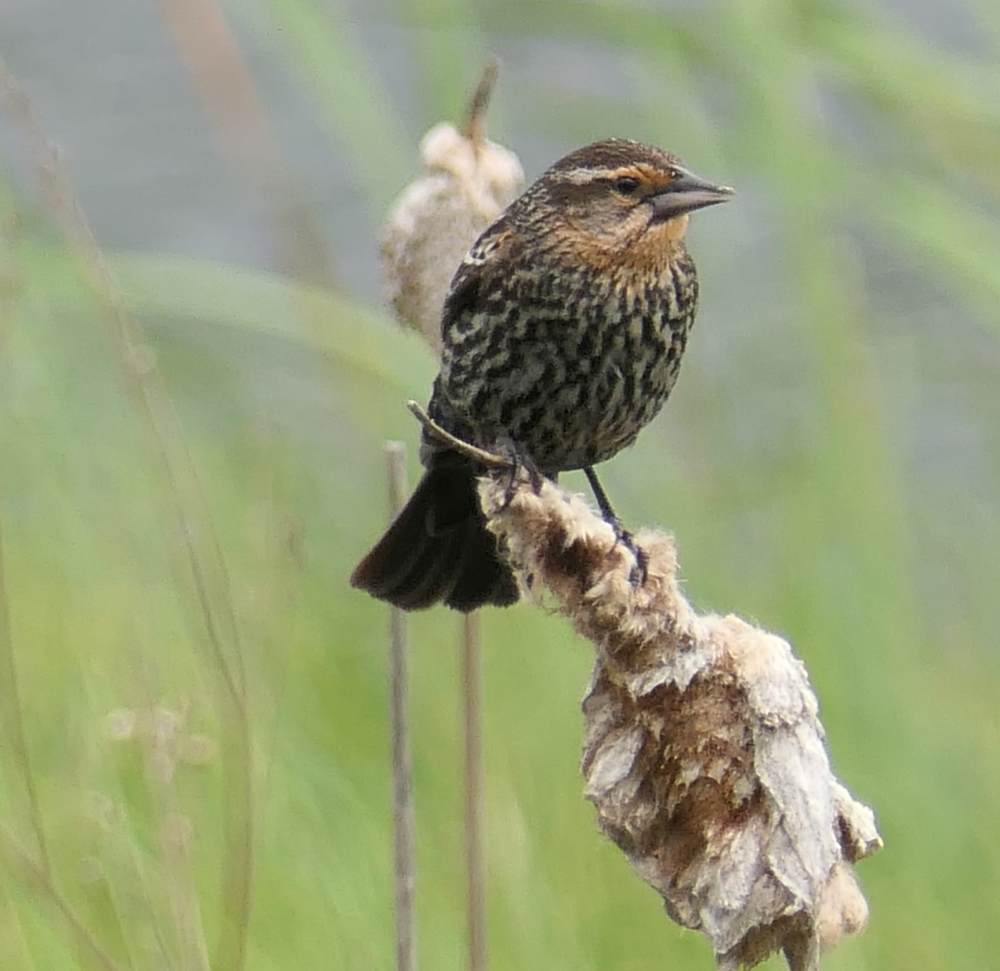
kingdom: Animalia
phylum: Chordata
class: Aves
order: Passeriformes
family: Icteridae
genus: Agelaius
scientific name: Agelaius phoeniceus
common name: Red-winged blackbird
